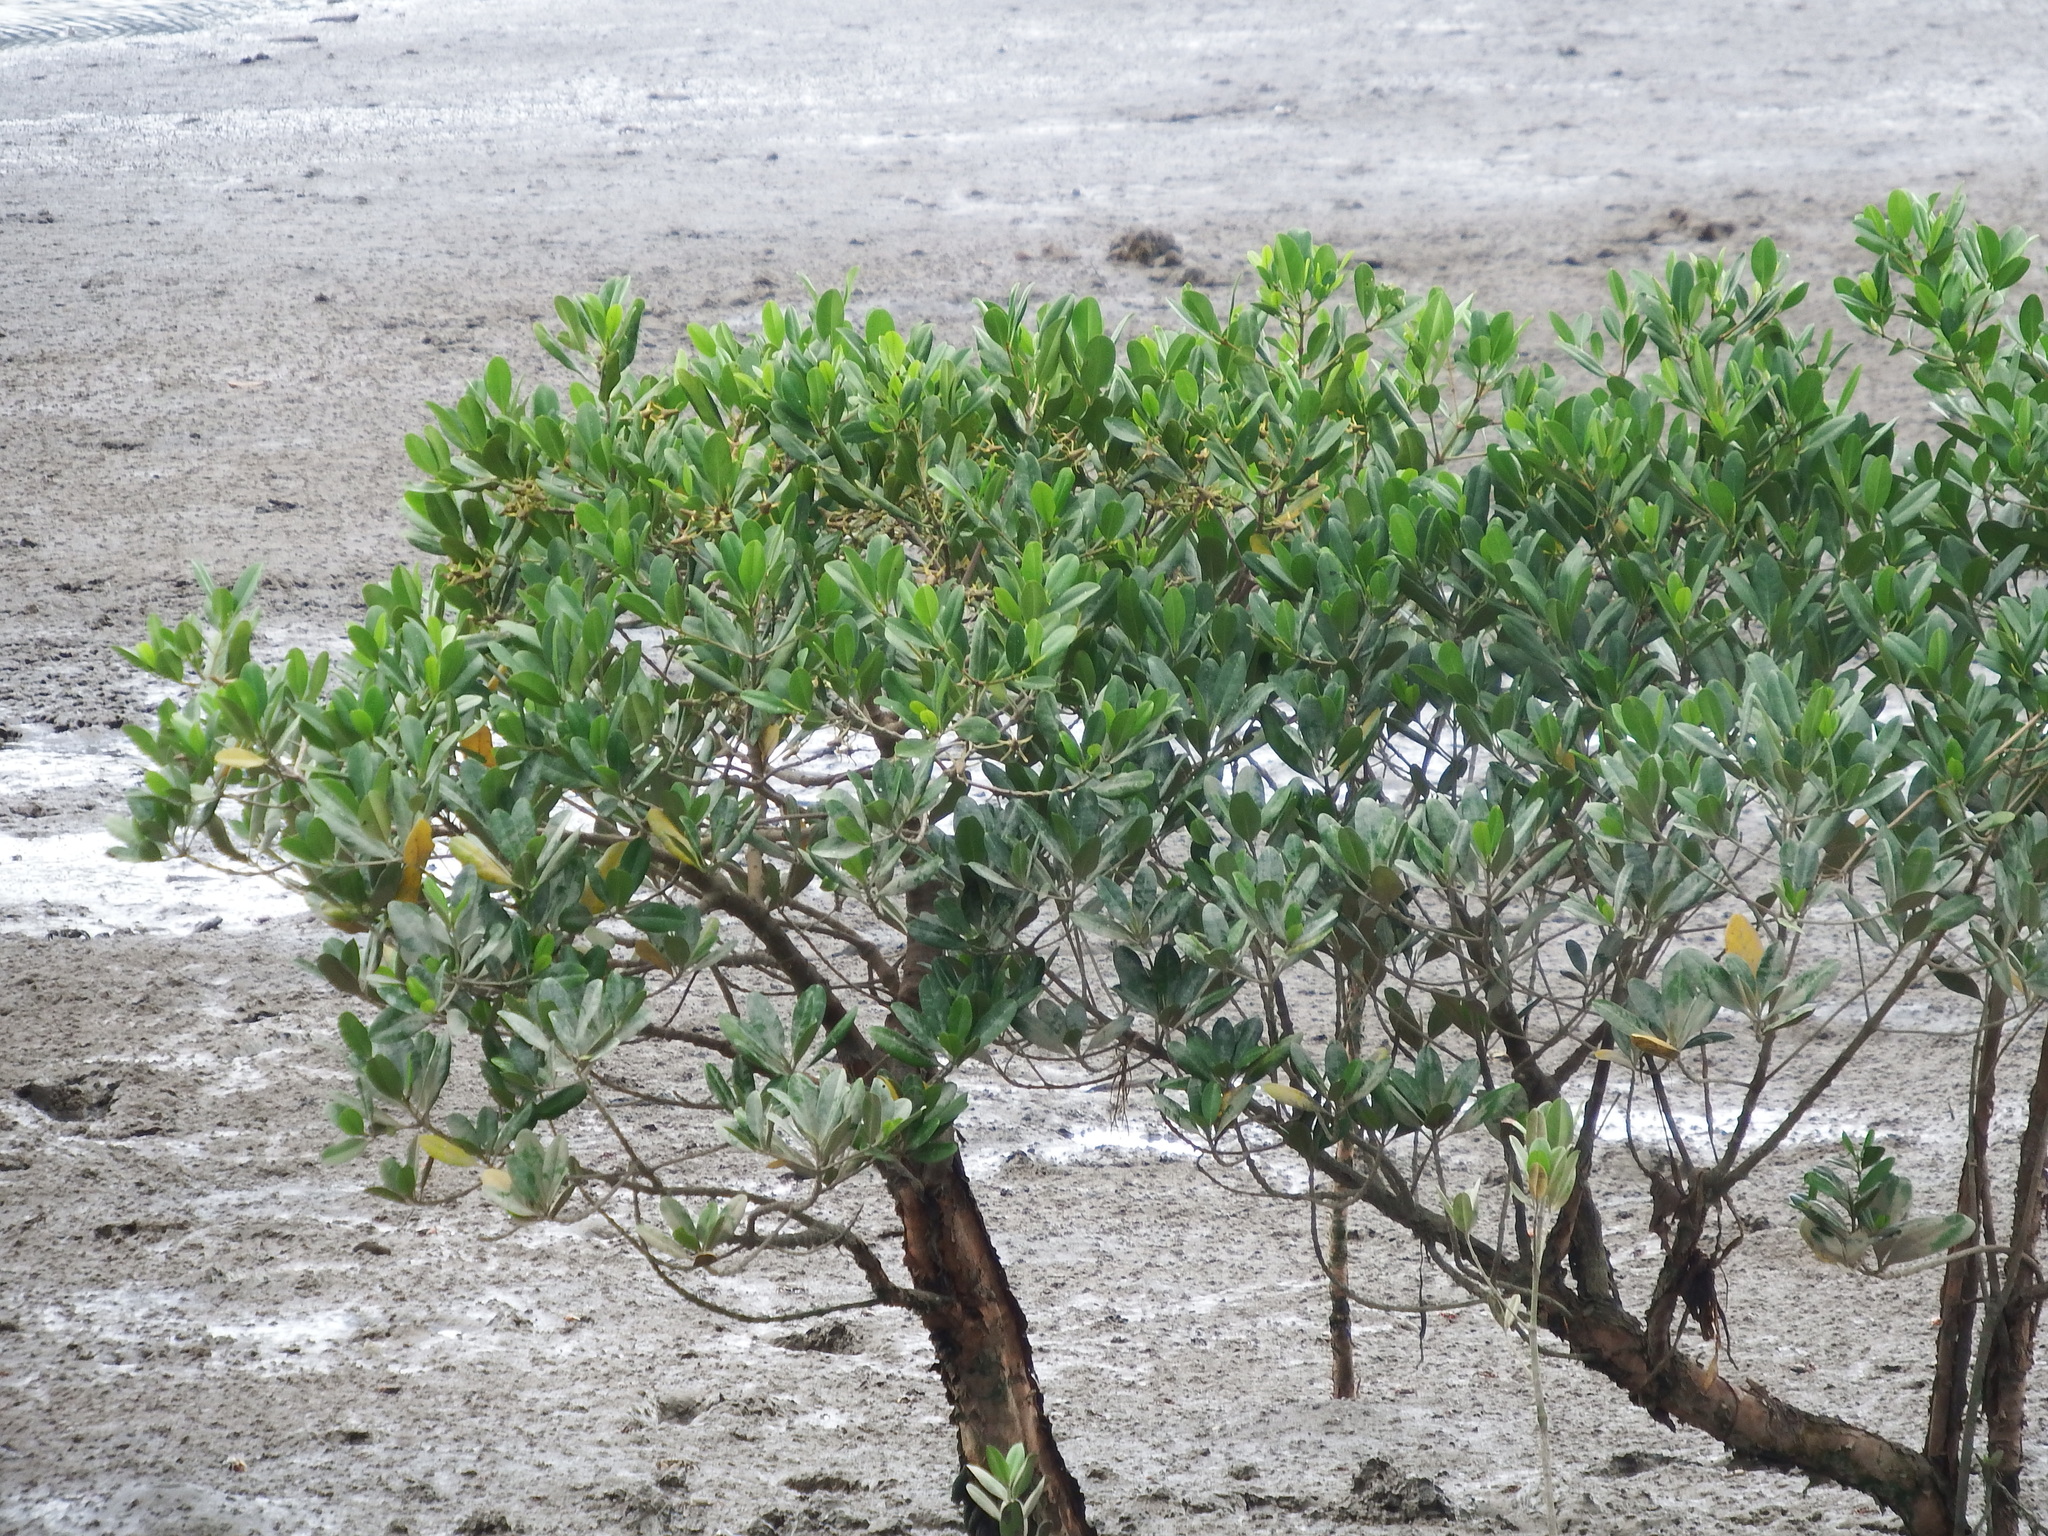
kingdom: Plantae
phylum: Tracheophyta
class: Magnoliopsida
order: Malpighiales
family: Rhizophoraceae
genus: Kandelia
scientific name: Kandelia obovata
